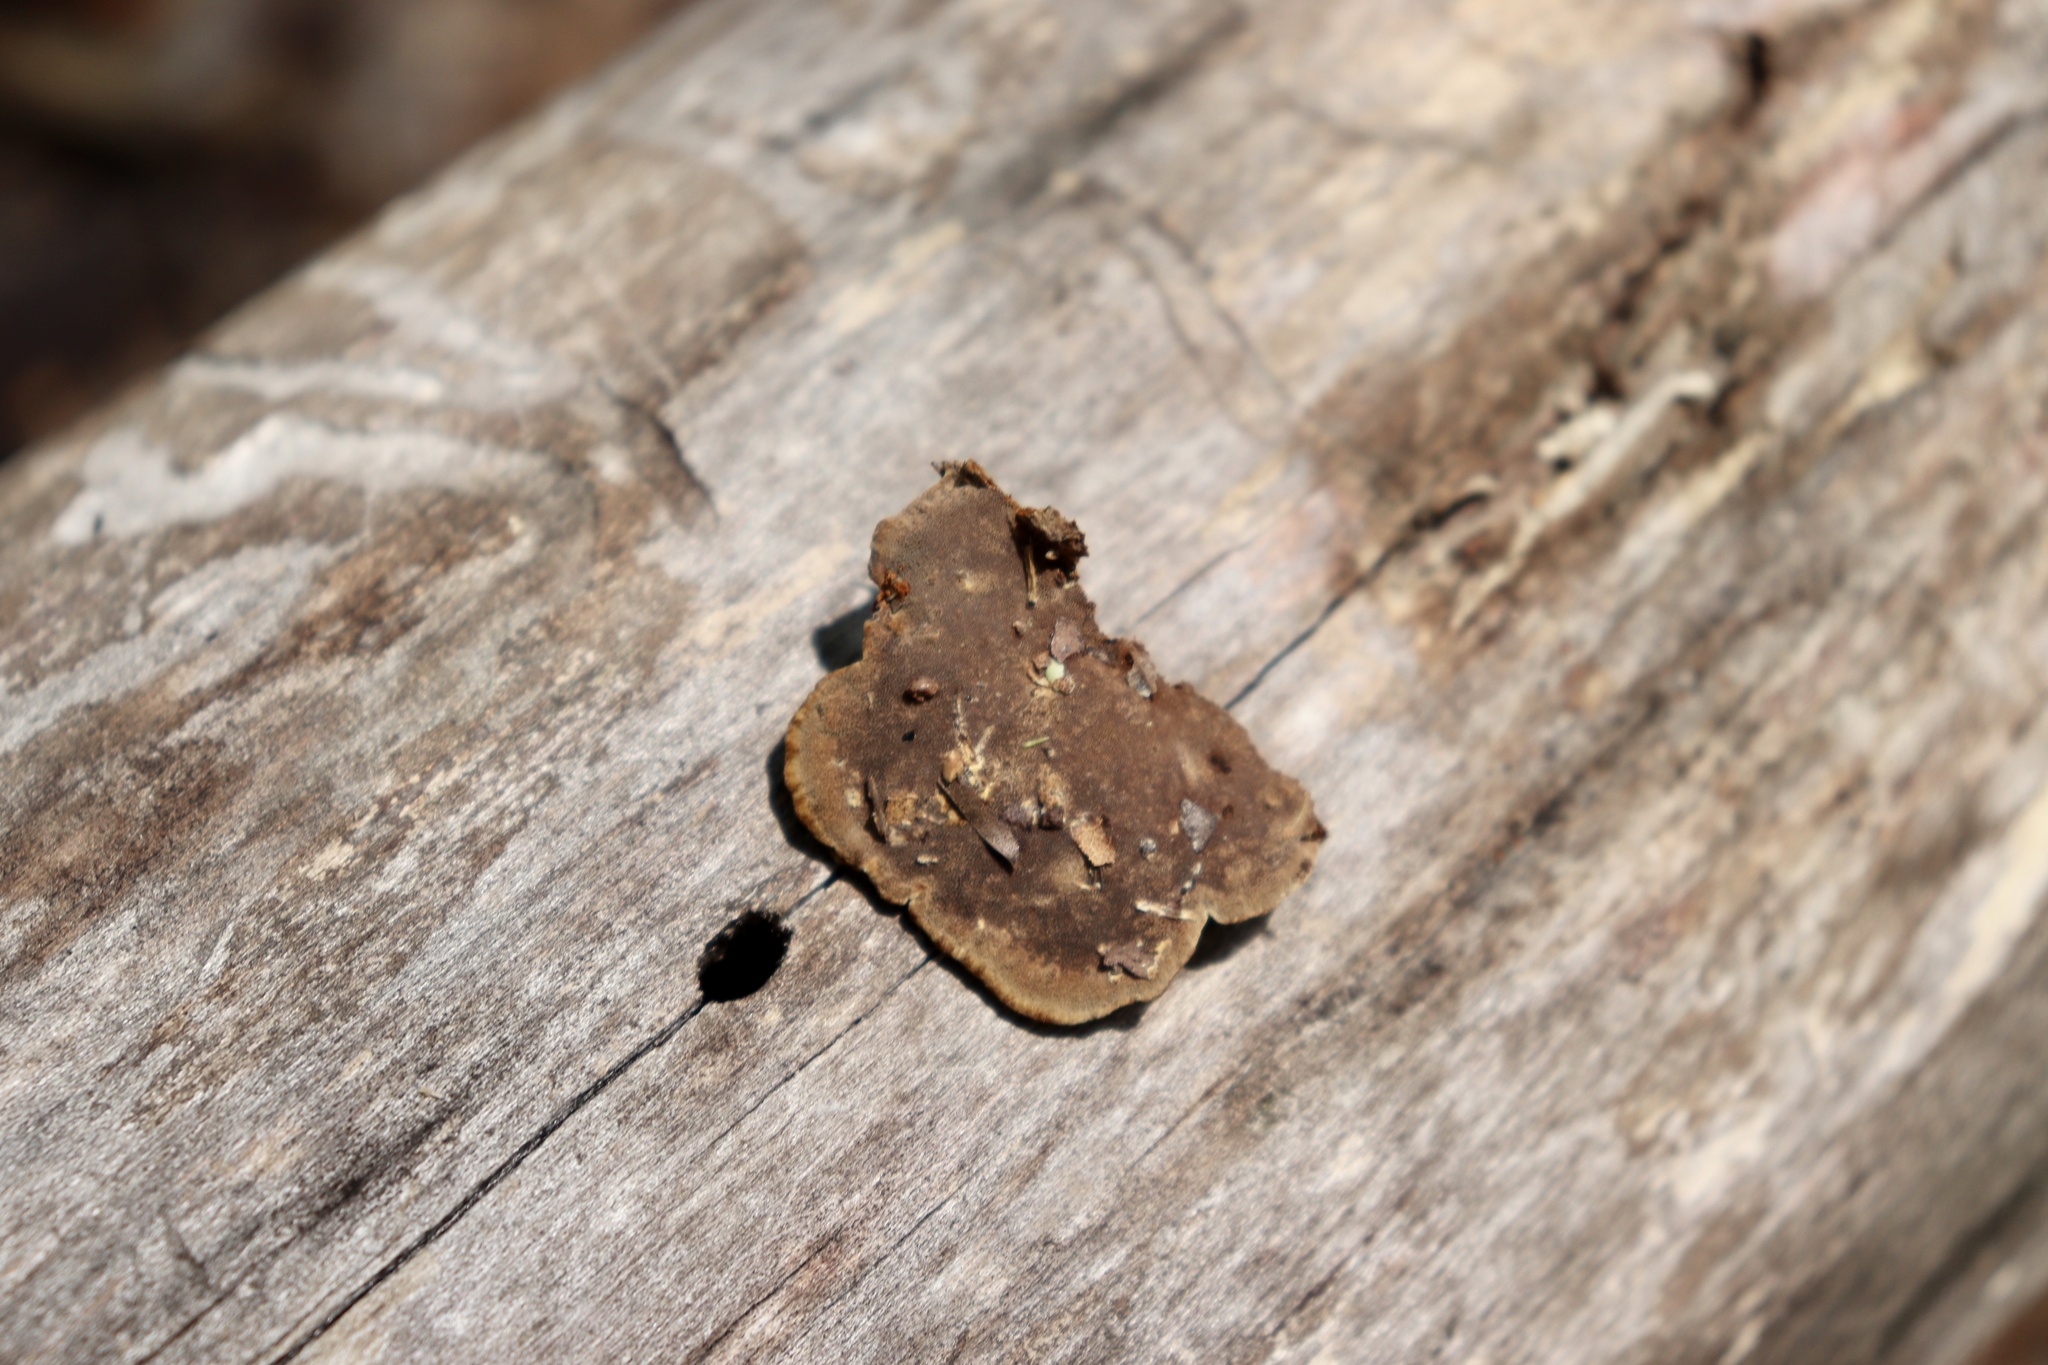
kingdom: Fungi
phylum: Basidiomycota
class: Agaricomycetes
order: Hymenochaetales
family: Hymenochaetaceae
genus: Phellinus
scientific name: Phellinus gilvus
